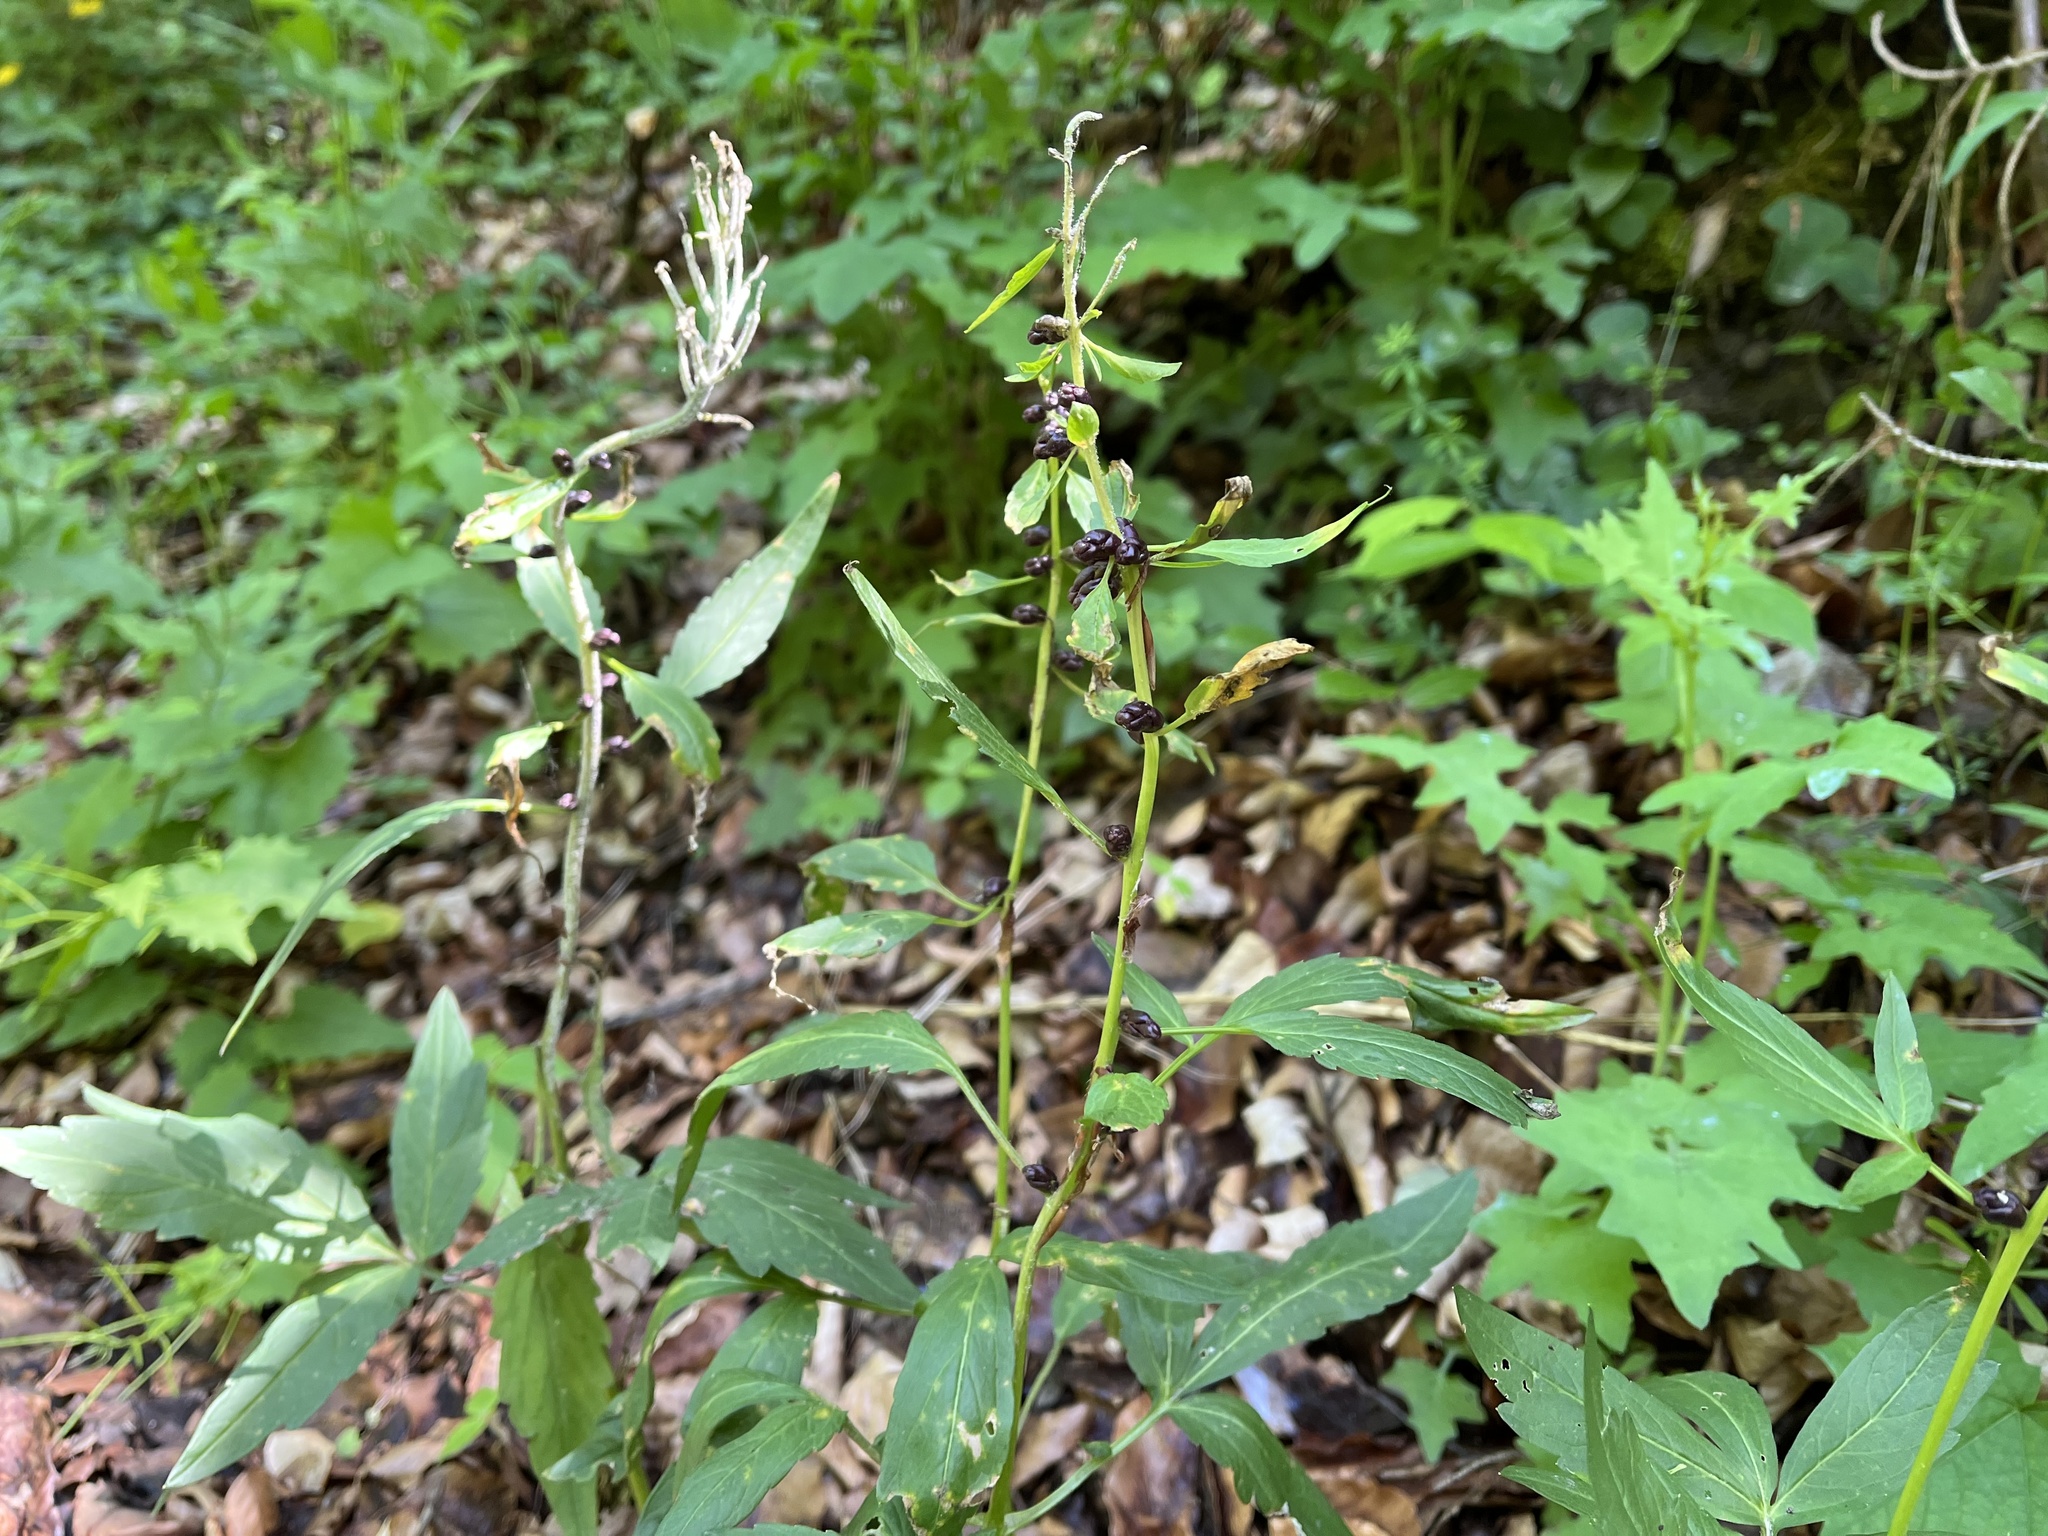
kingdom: Plantae
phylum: Tracheophyta
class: Magnoliopsida
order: Brassicales
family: Brassicaceae
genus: Cardamine
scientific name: Cardamine bulbifera
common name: Coralroot bittercress
